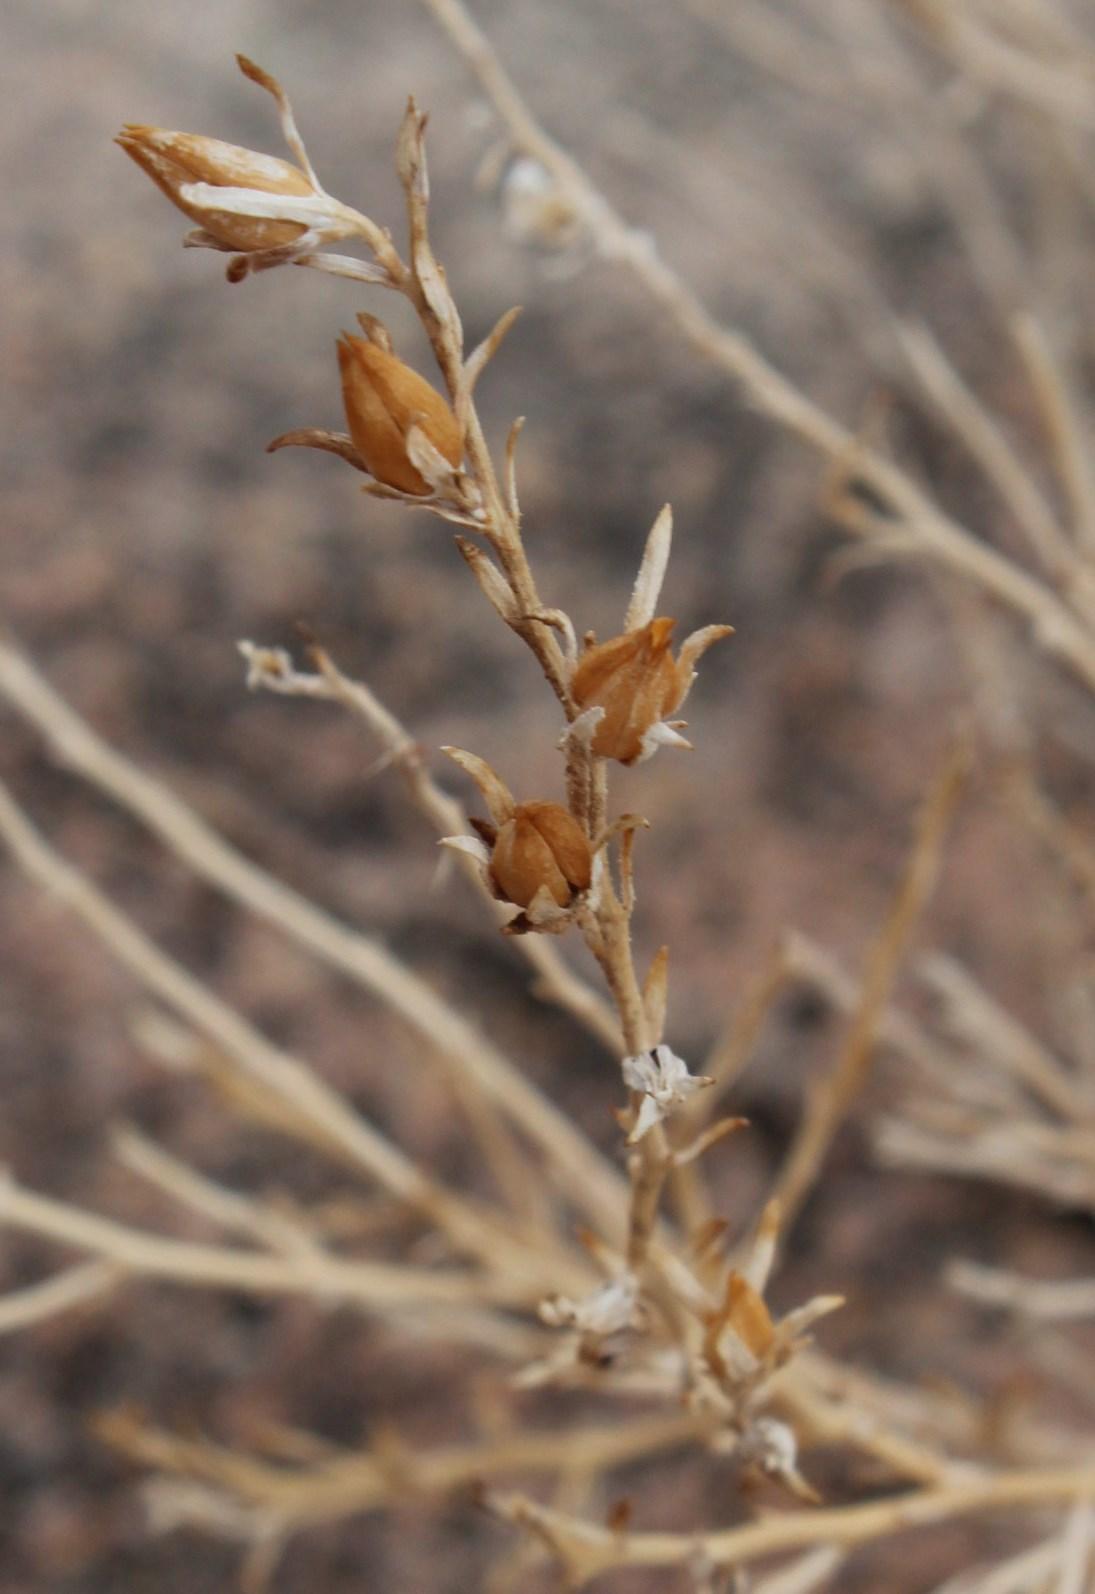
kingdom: Plantae
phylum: Tracheophyta
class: Magnoliopsida
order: Lamiales
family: Scrophulariaceae
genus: Anticharis
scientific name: Anticharis scoparia
